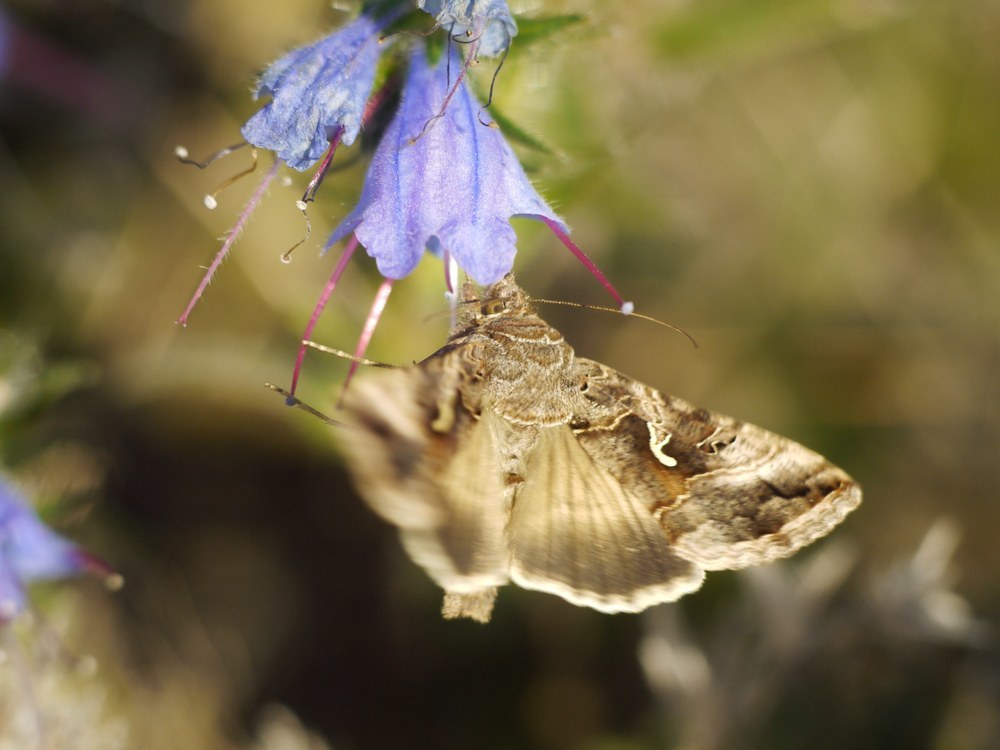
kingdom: Animalia
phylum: Arthropoda
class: Insecta
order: Lepidoptera
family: Noctuidae
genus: Autographa
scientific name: Autographa gamma
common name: Silver y
